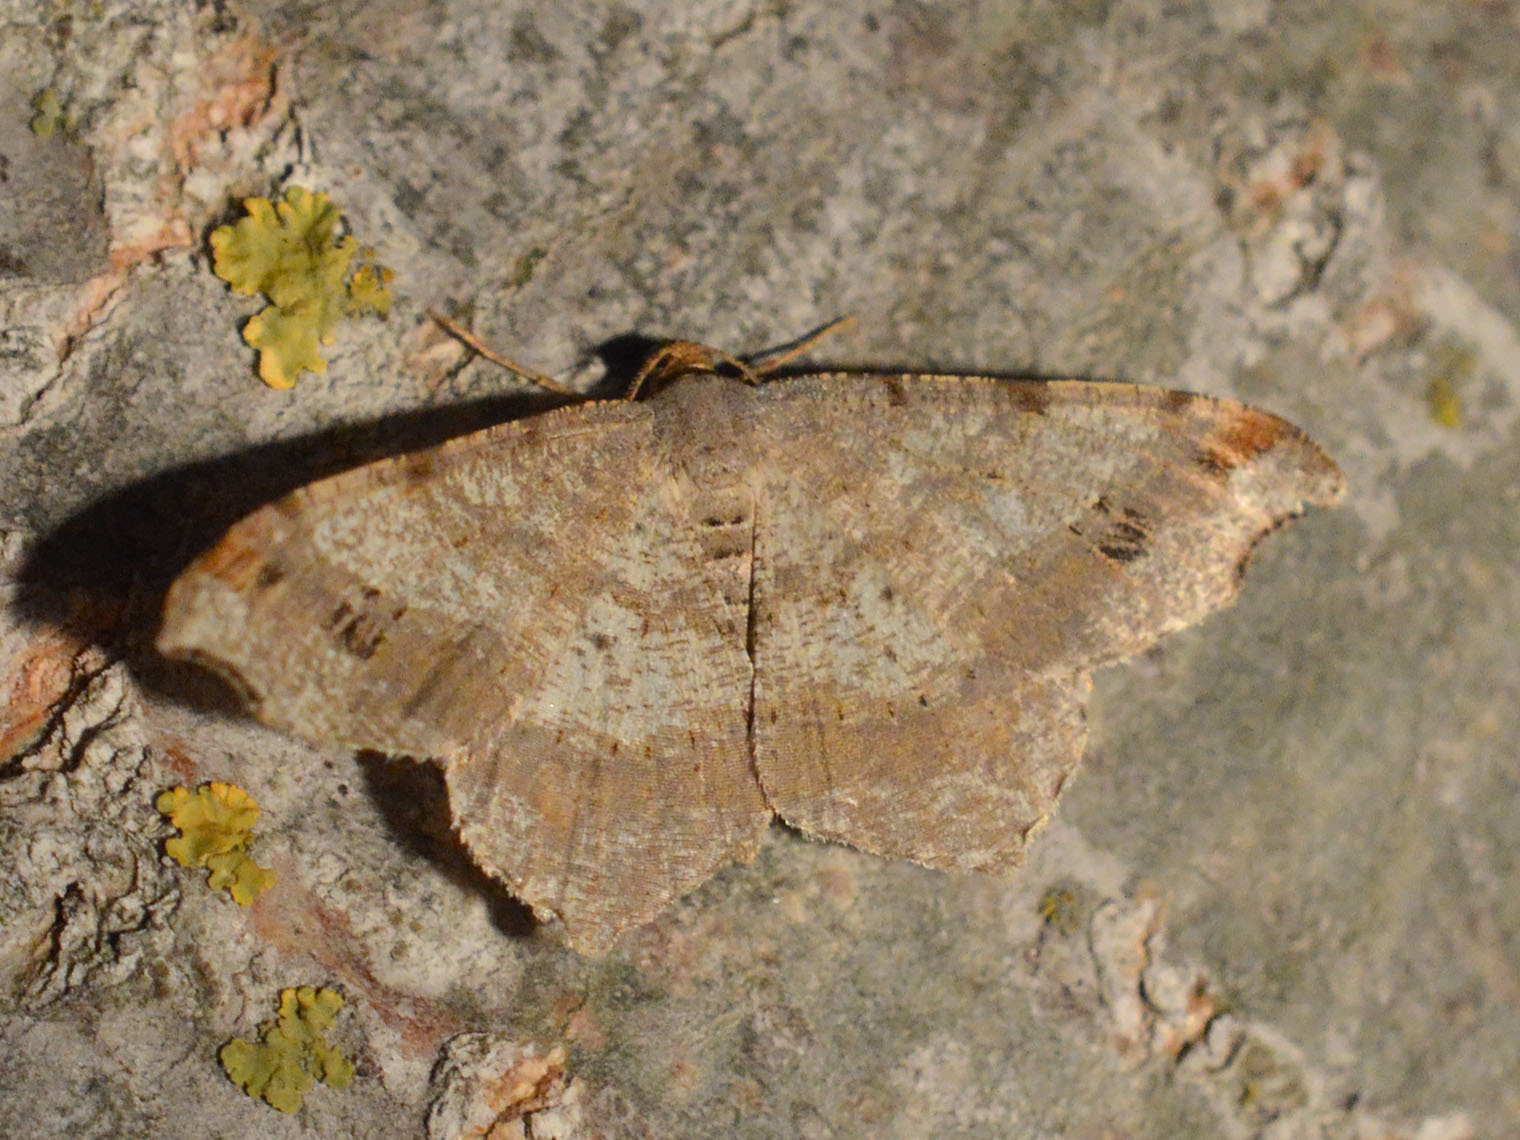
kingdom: Animalia
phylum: Arthropoda
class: Insecta
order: Lepidoptera
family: Geometridae
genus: Macaria
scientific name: Macaria alternata
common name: Sharp-angled peacock
